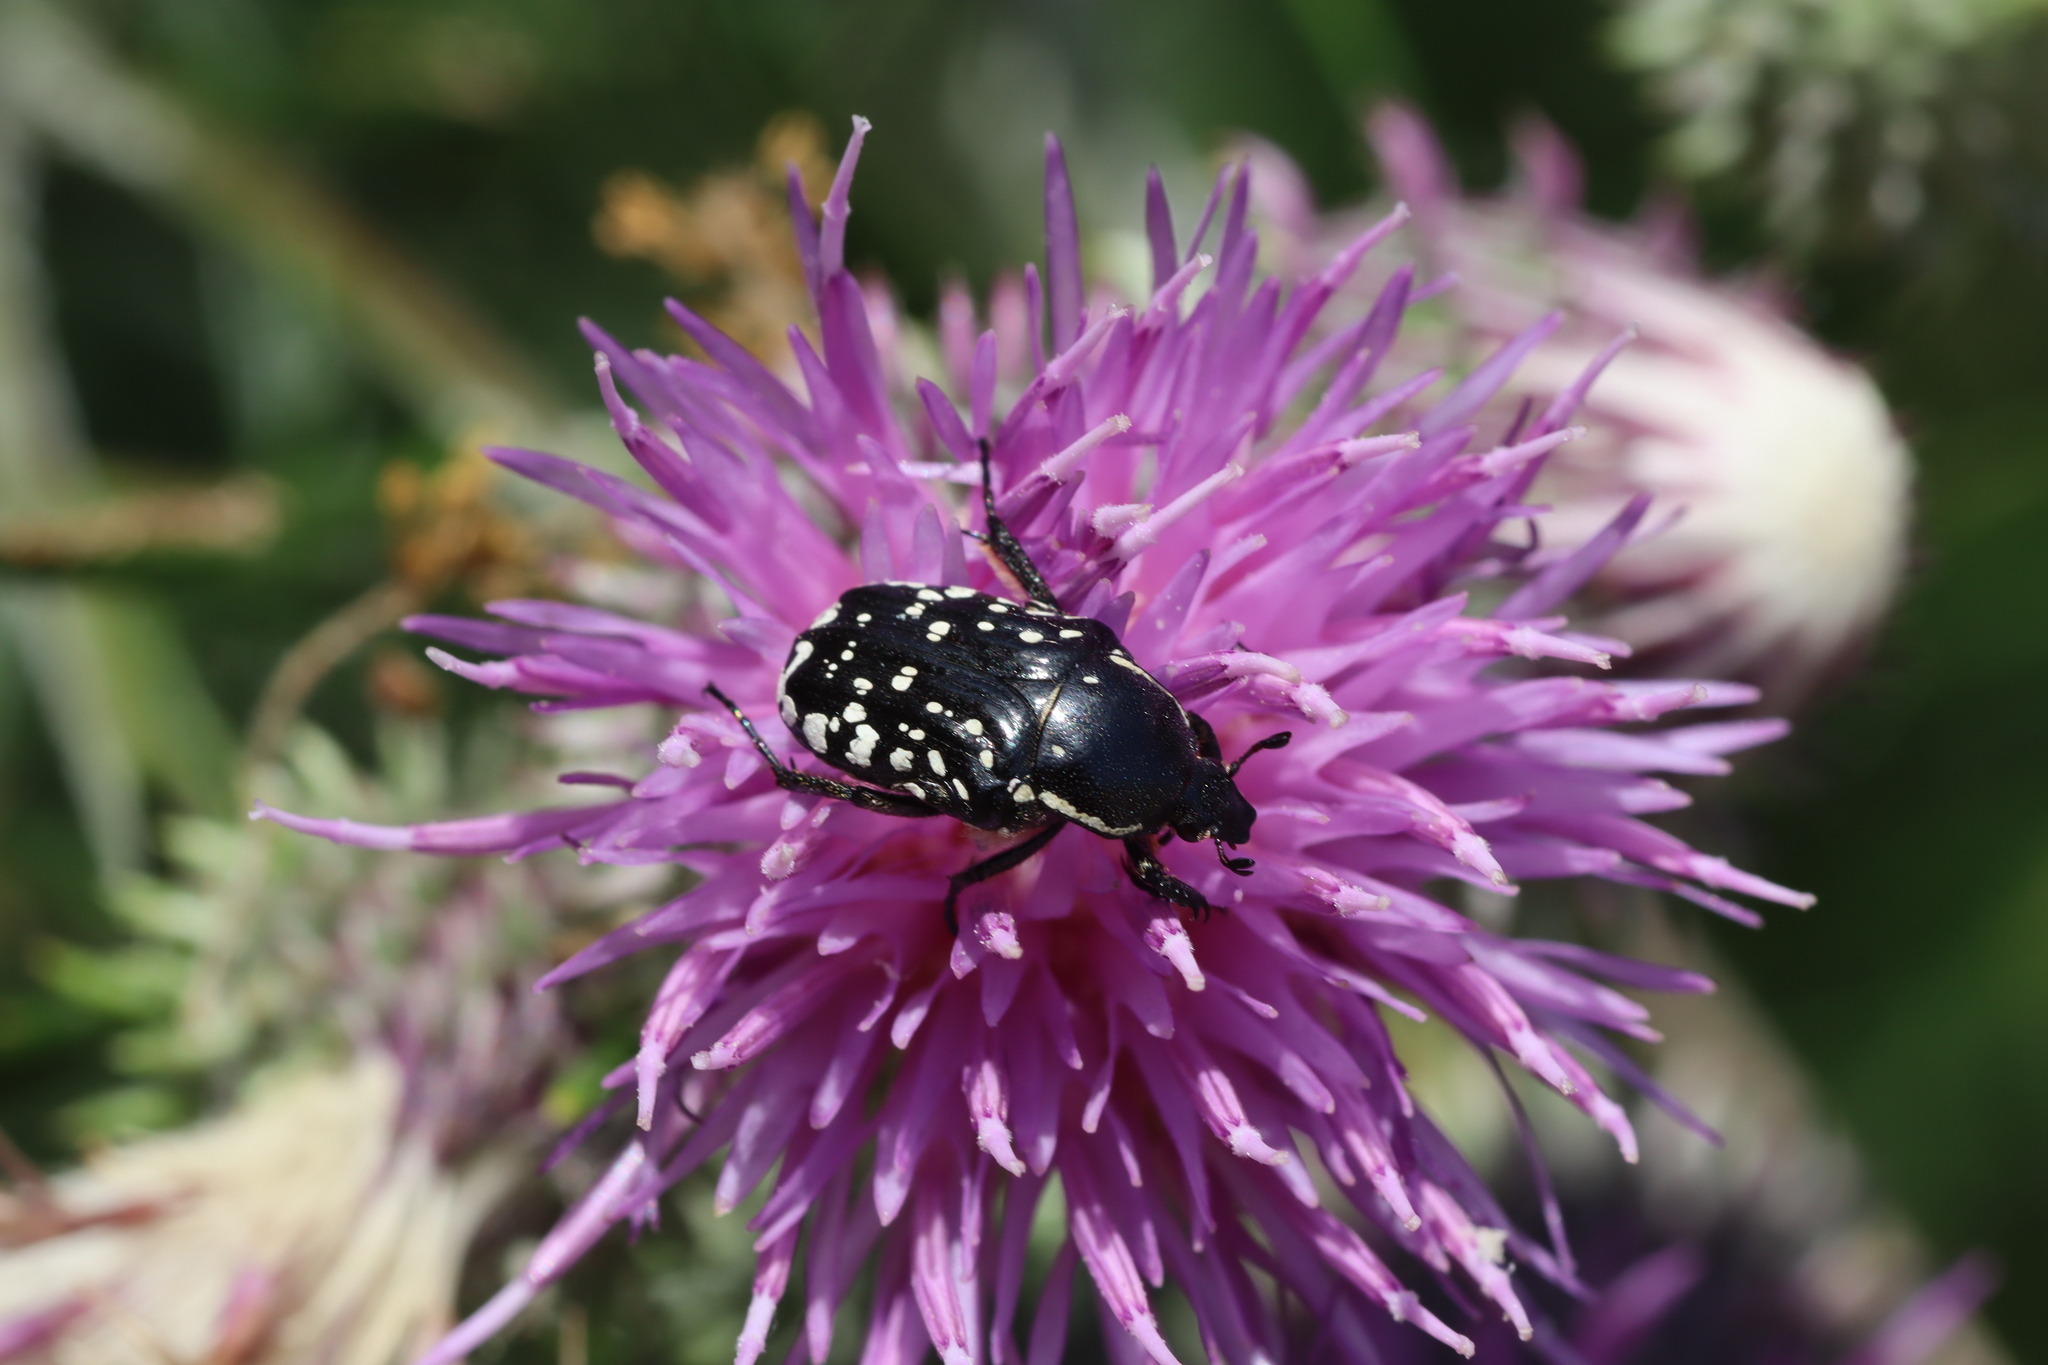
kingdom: Animalia
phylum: Arthropoda
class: Insecta
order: Coleoptera
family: Scarabaeidae
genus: Oxythyrea
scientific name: Oxythyrea cinctella
